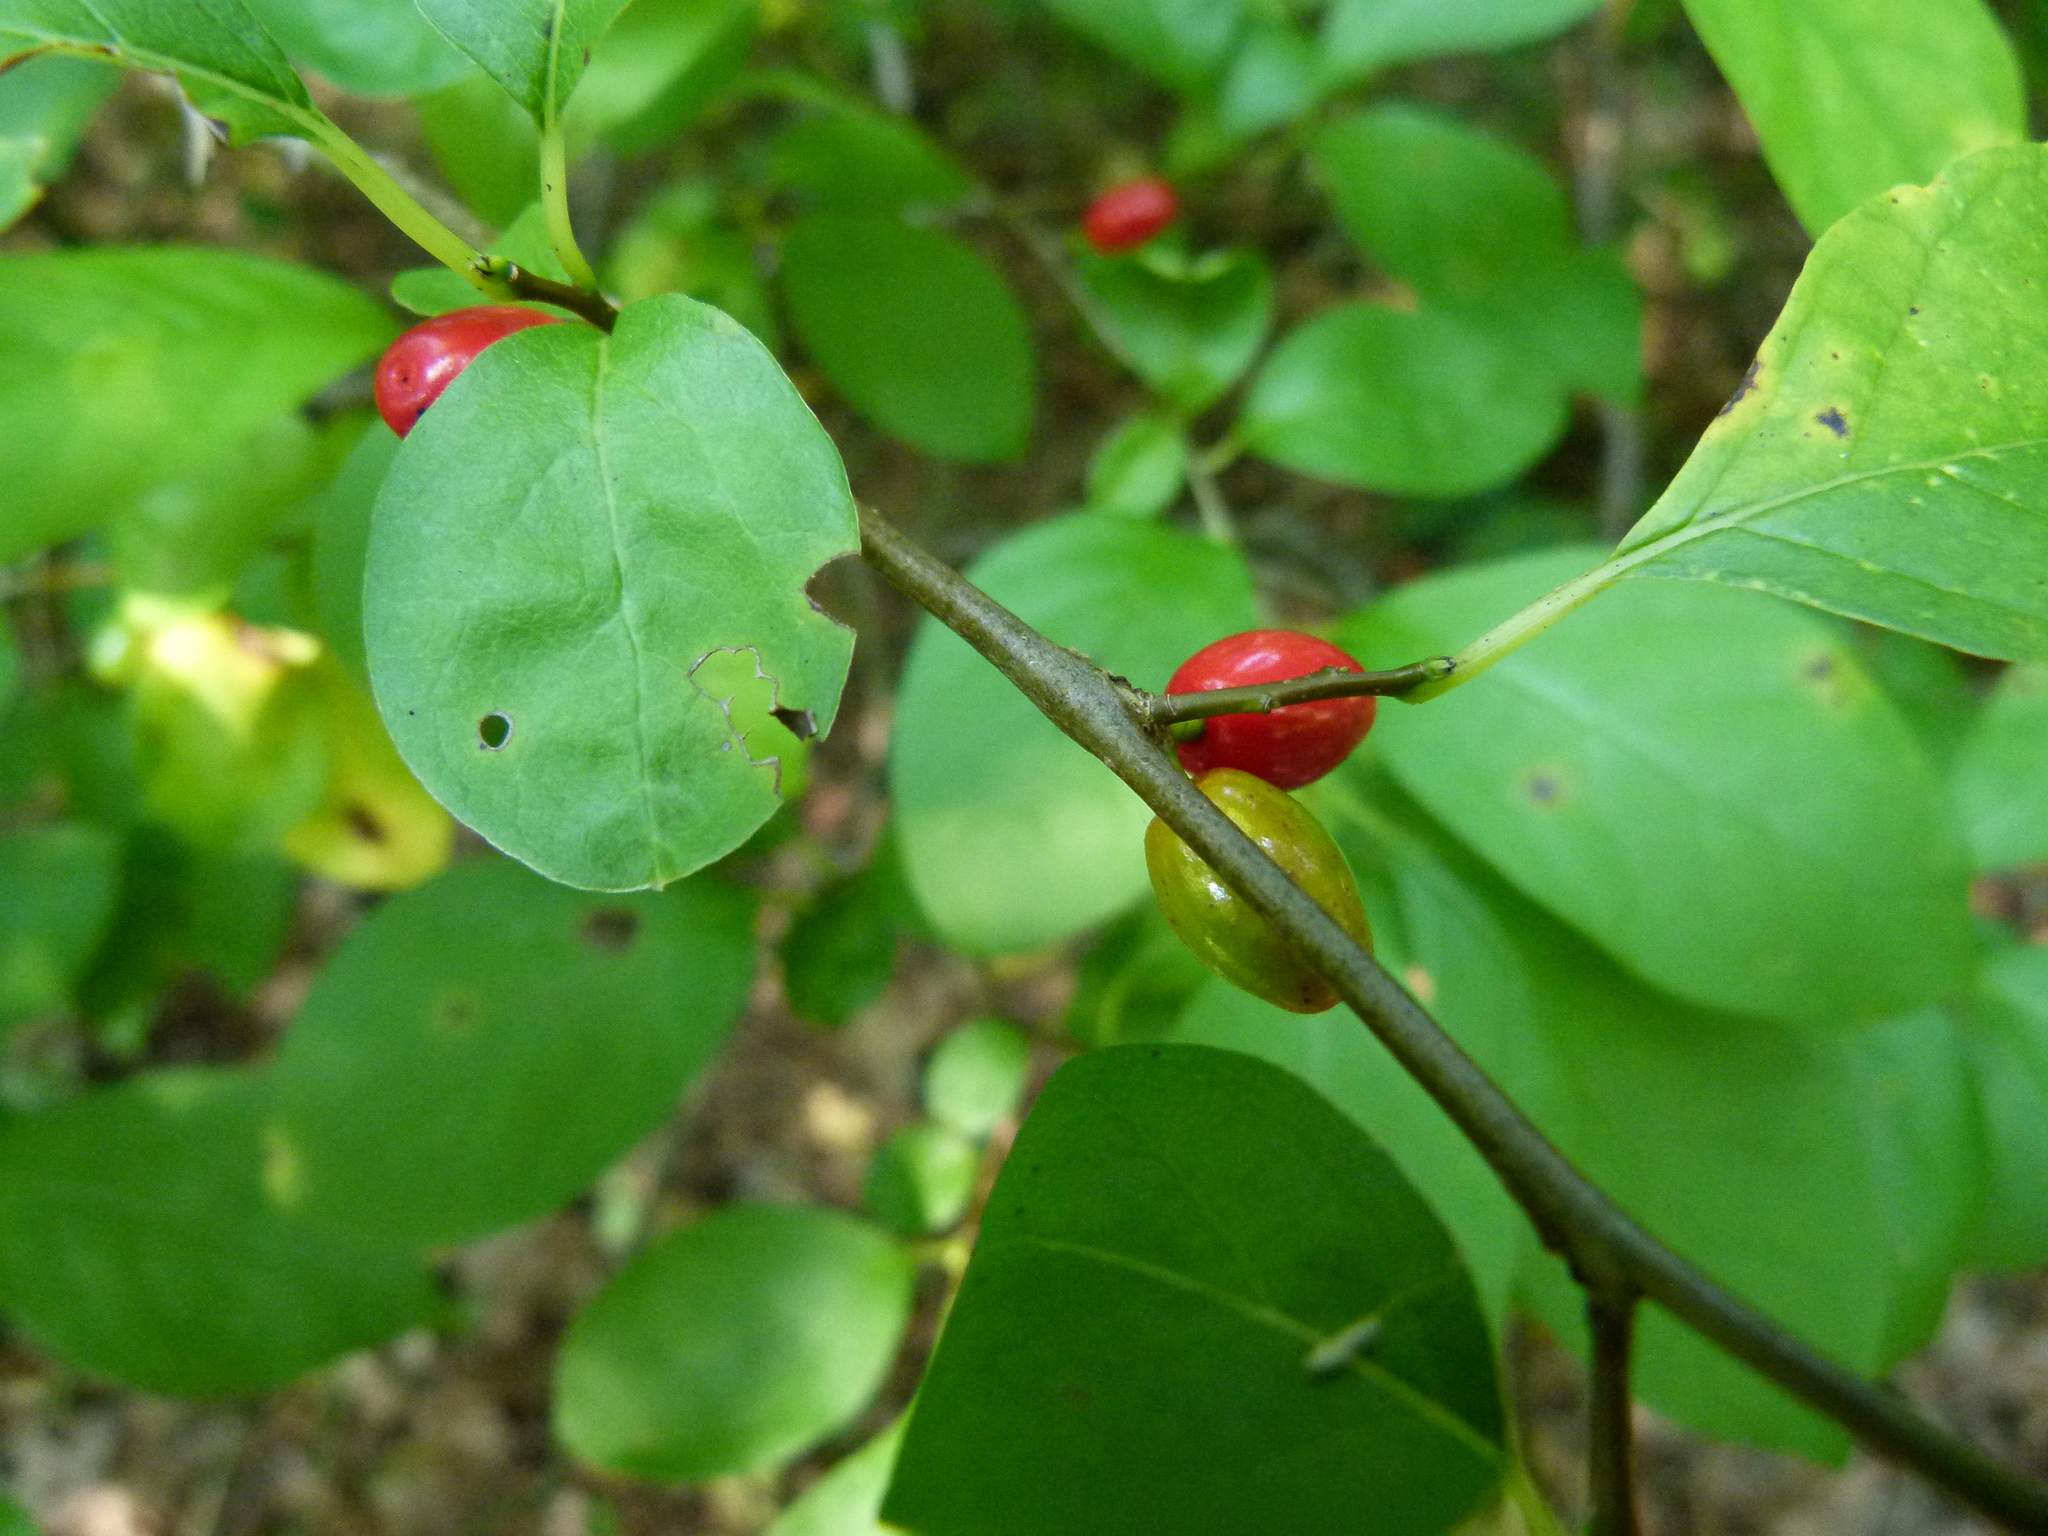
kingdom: Plantae
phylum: Tracheophyta
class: Magnoliopsida
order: Laurales
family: Lauraceae
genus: Lindera
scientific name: Lindera benzoin
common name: Spicebush
